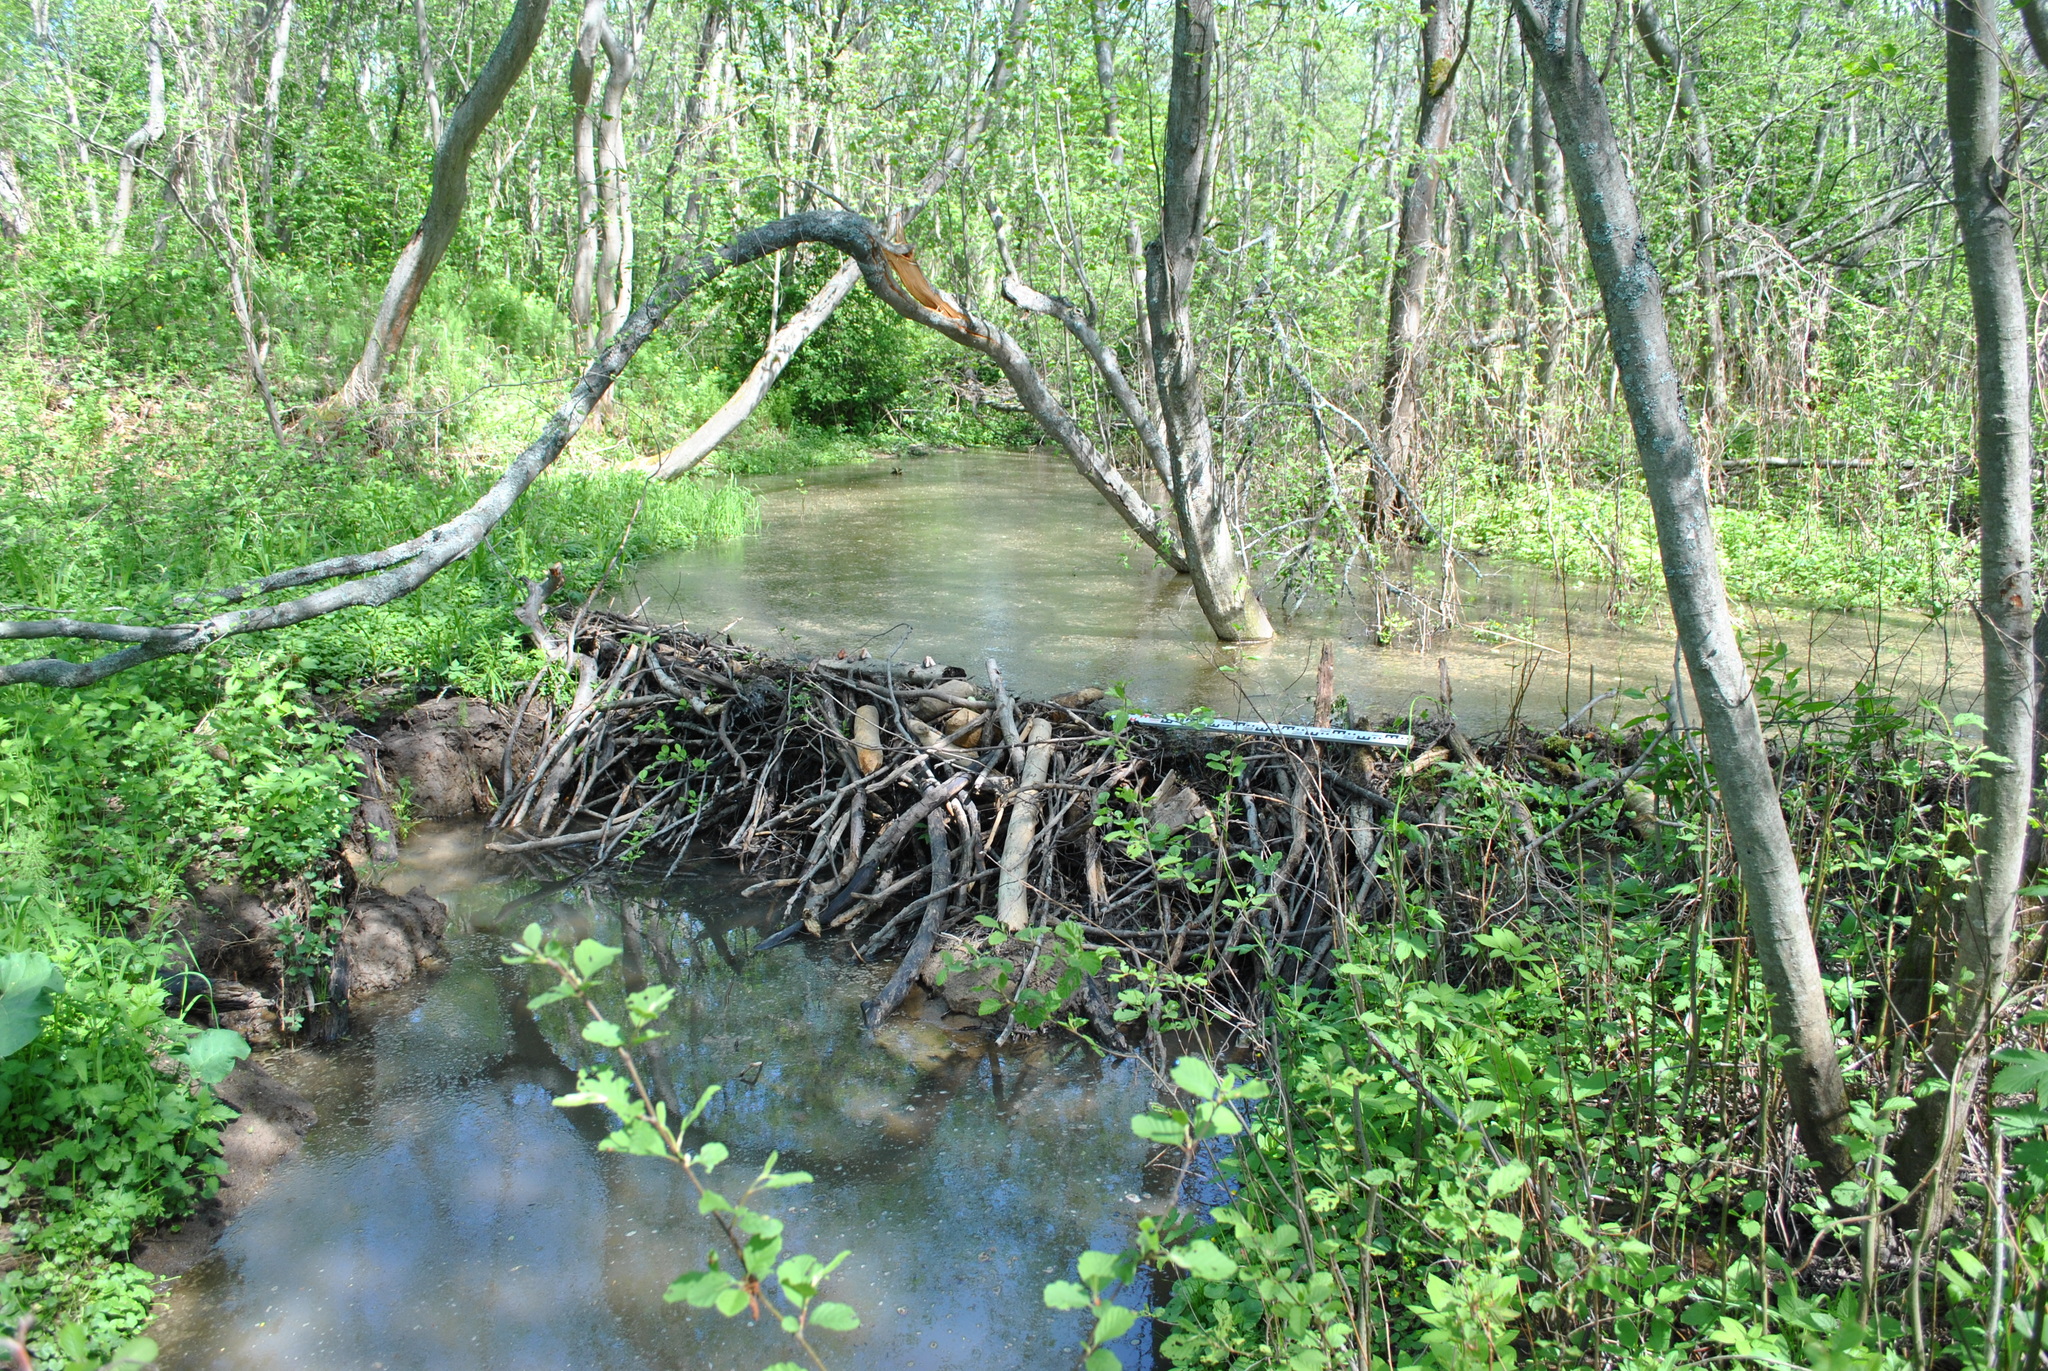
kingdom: Animalia
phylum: Chordata
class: Mammalia
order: Rodentia
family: Castoridae
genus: Castor
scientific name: Castor fiber
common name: Eurasian beaver
